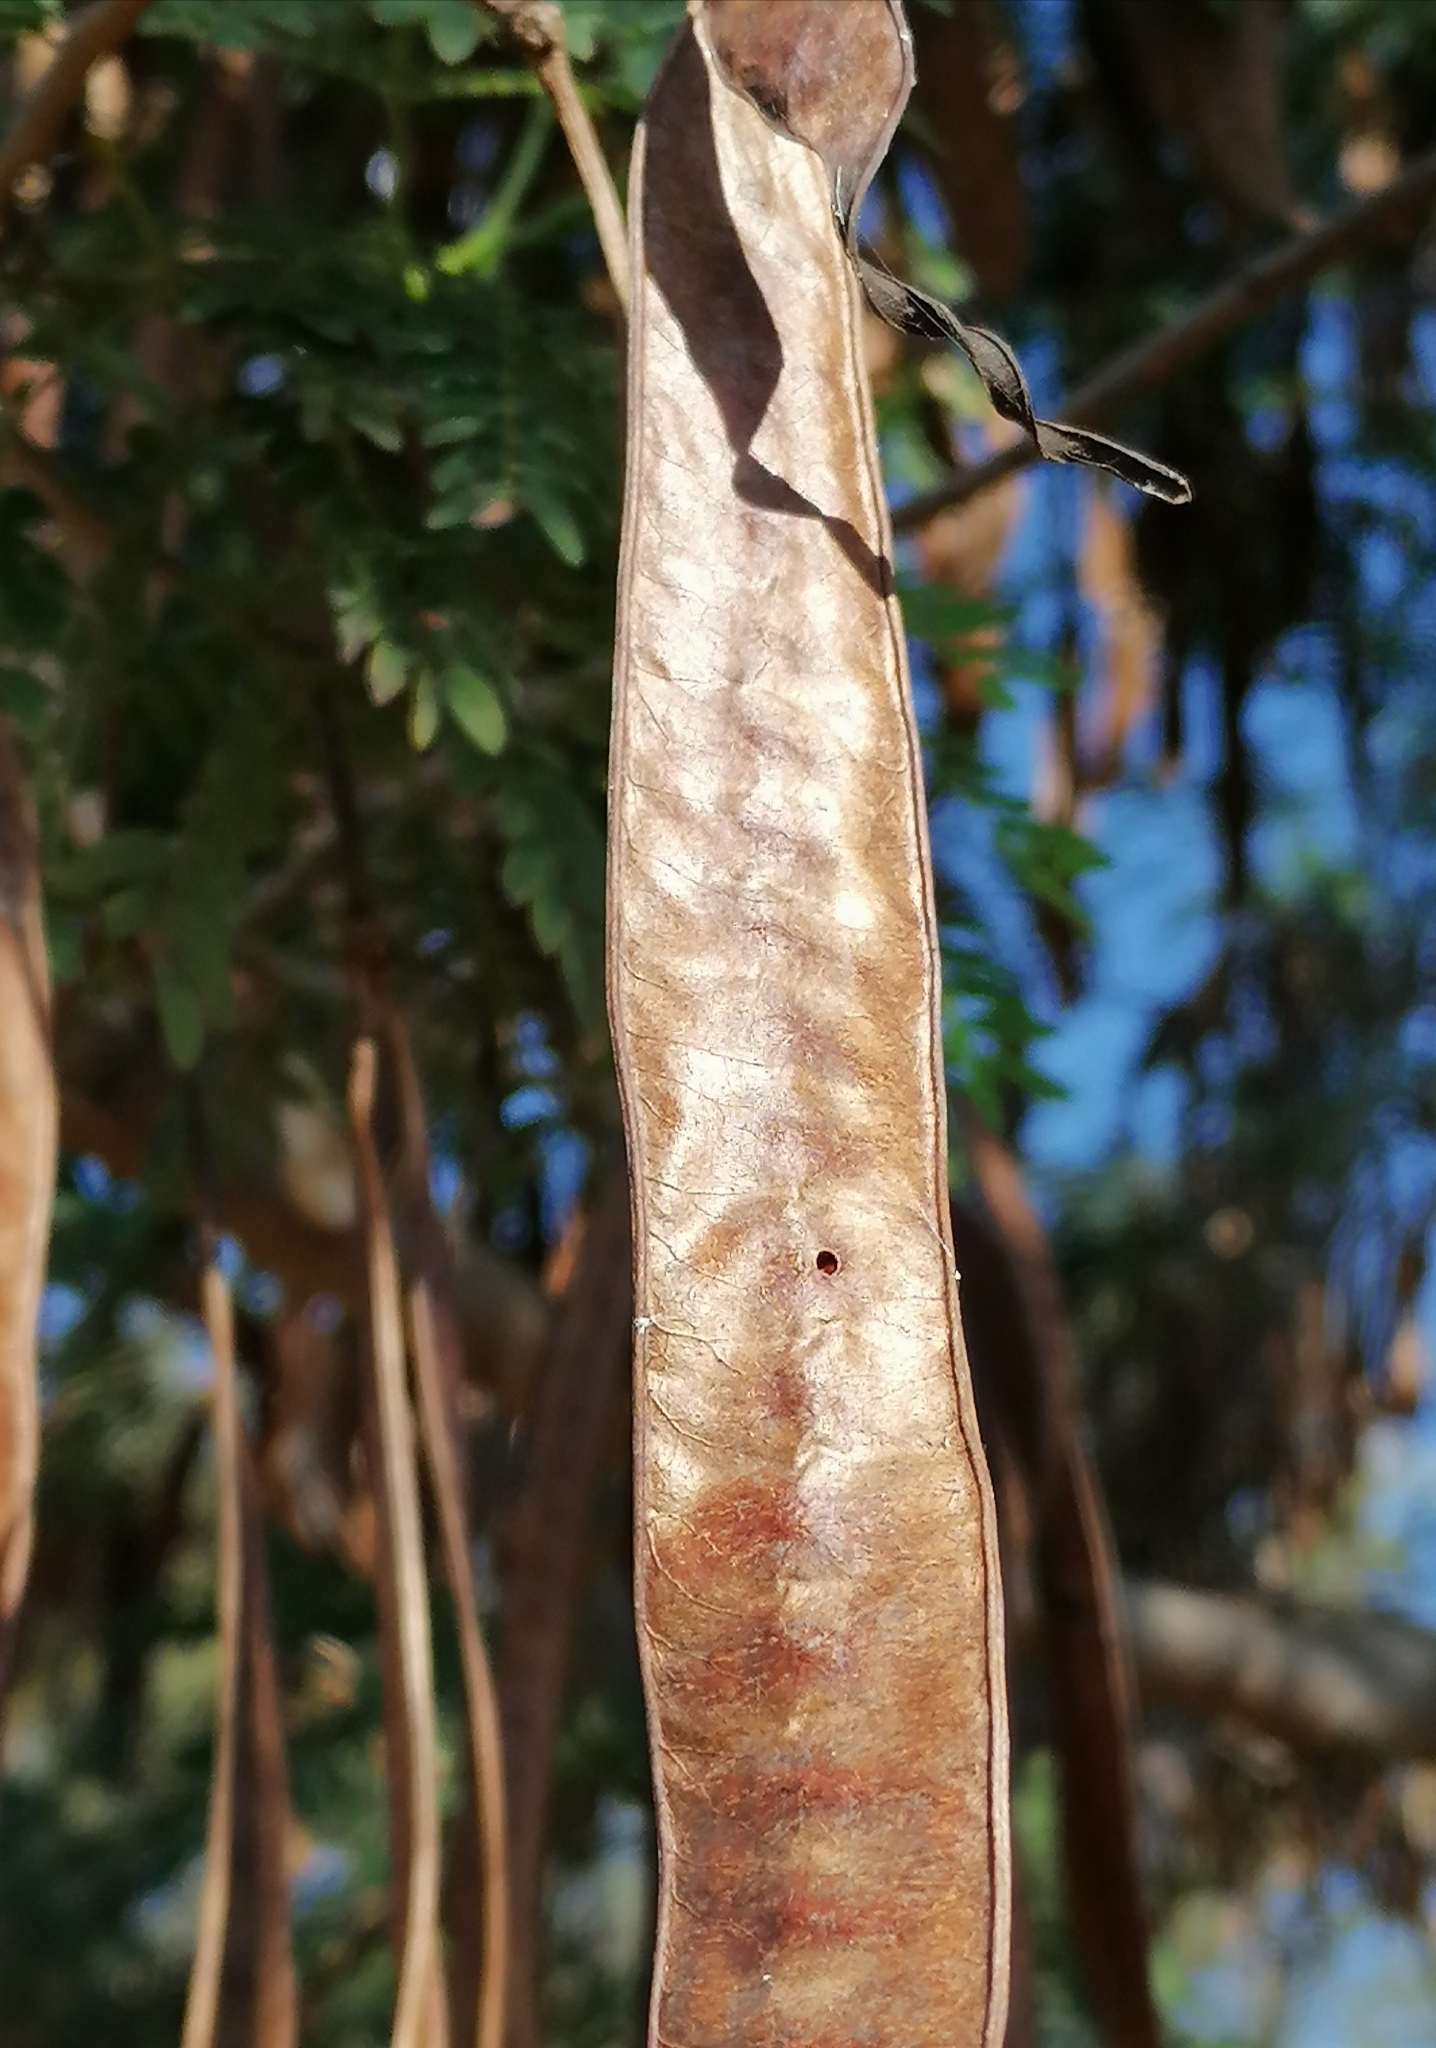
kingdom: Plantae
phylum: Tracheophyta
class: Magnoliopsida
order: Fabales
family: Fabaceae
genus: Leucaena
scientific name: Leucaena leucocephala
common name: White leadtree
